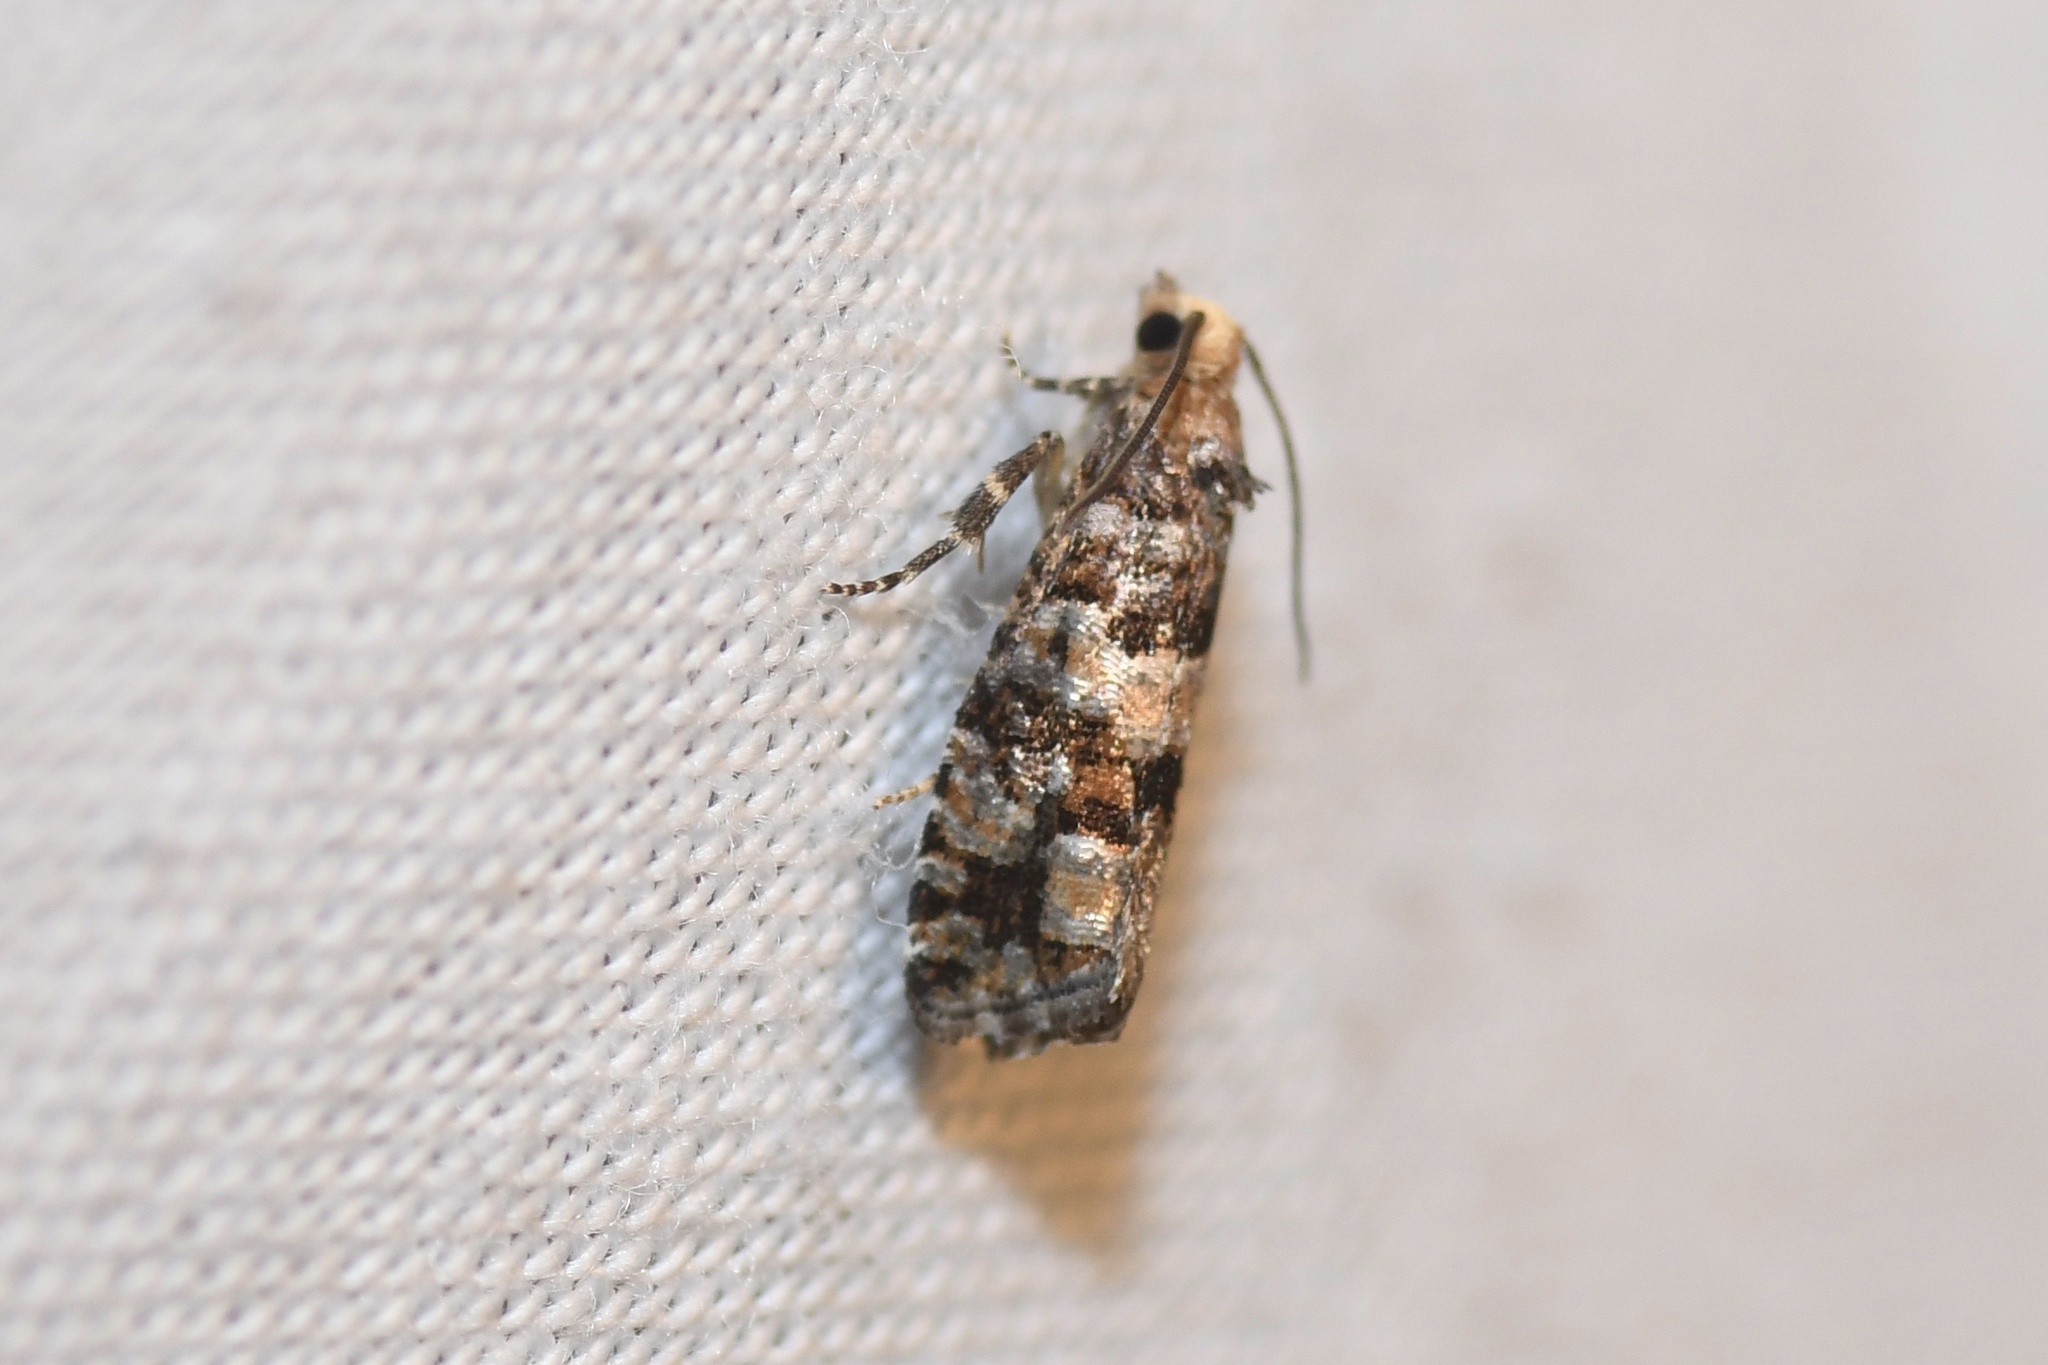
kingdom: Animalia
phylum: Arthropoda
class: Insecta
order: Lepidoptera
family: Tortricidae
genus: Eucopina
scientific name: Eucopina tocullionana
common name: White pinecone borer moth
